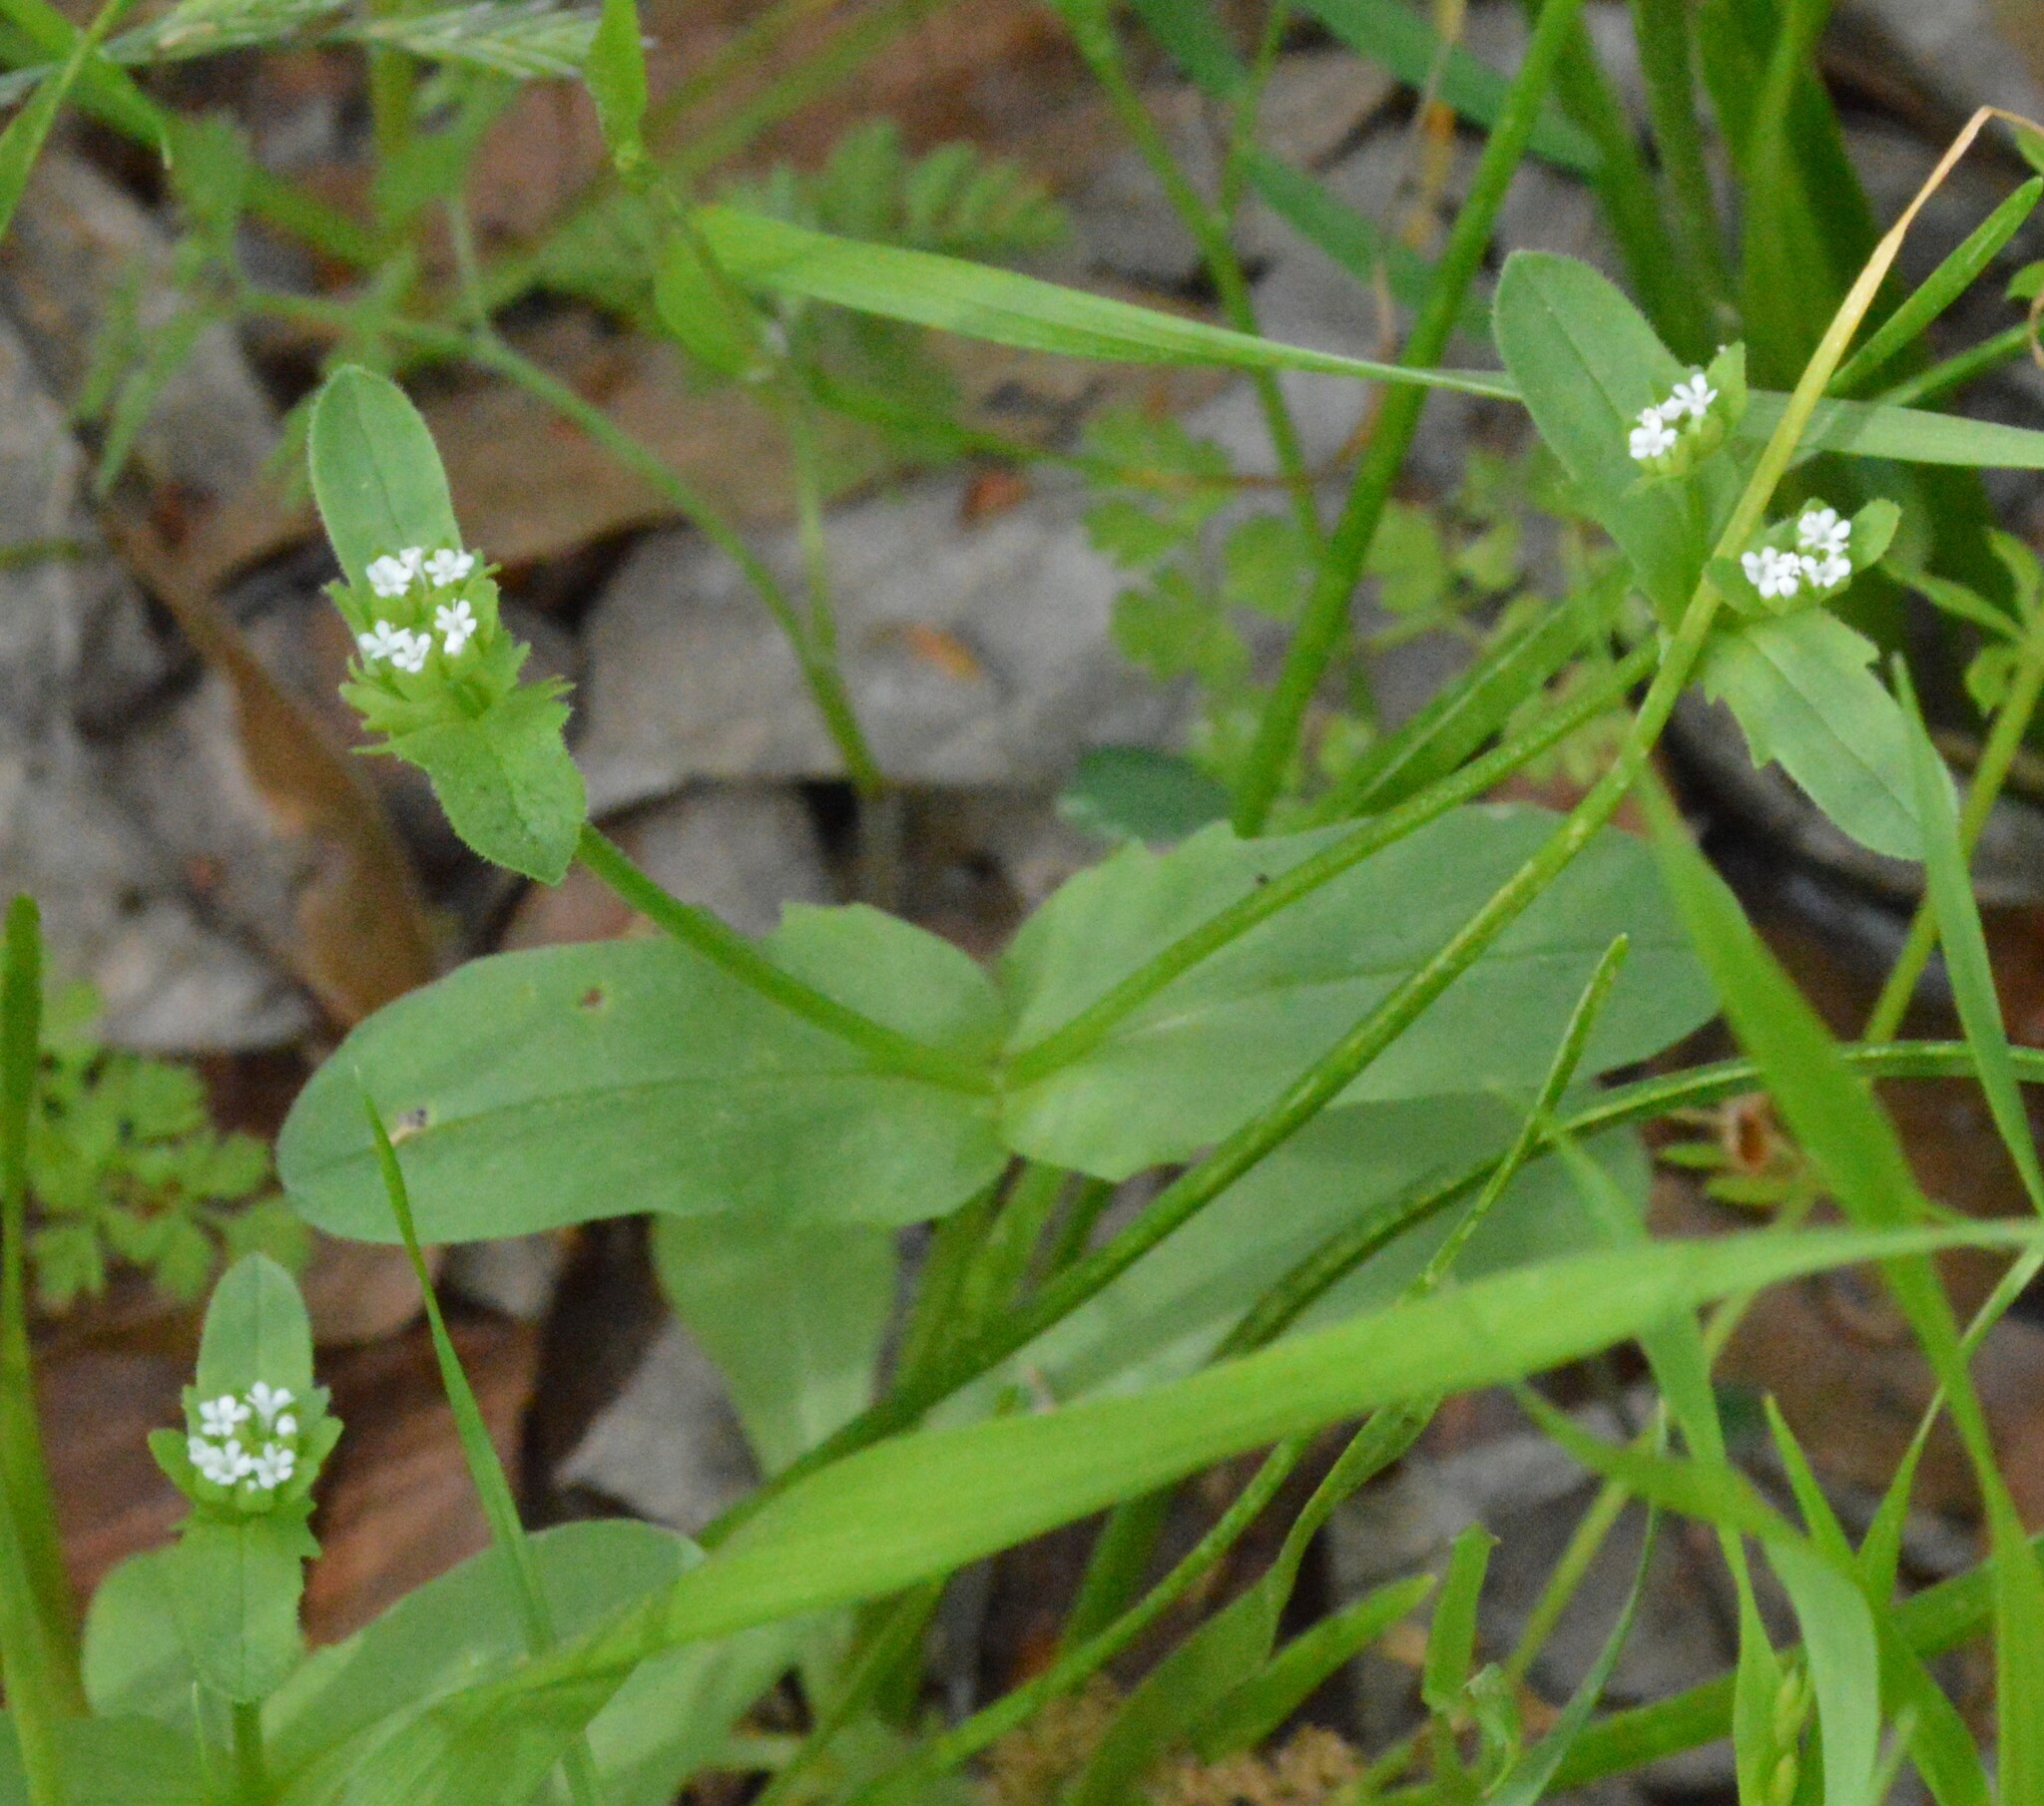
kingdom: Plantae
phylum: Tracheophyta
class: Magnoliopsida
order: Dipsacales
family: Caprifoliaceae
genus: Valerianella
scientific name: Valerianella radiata
